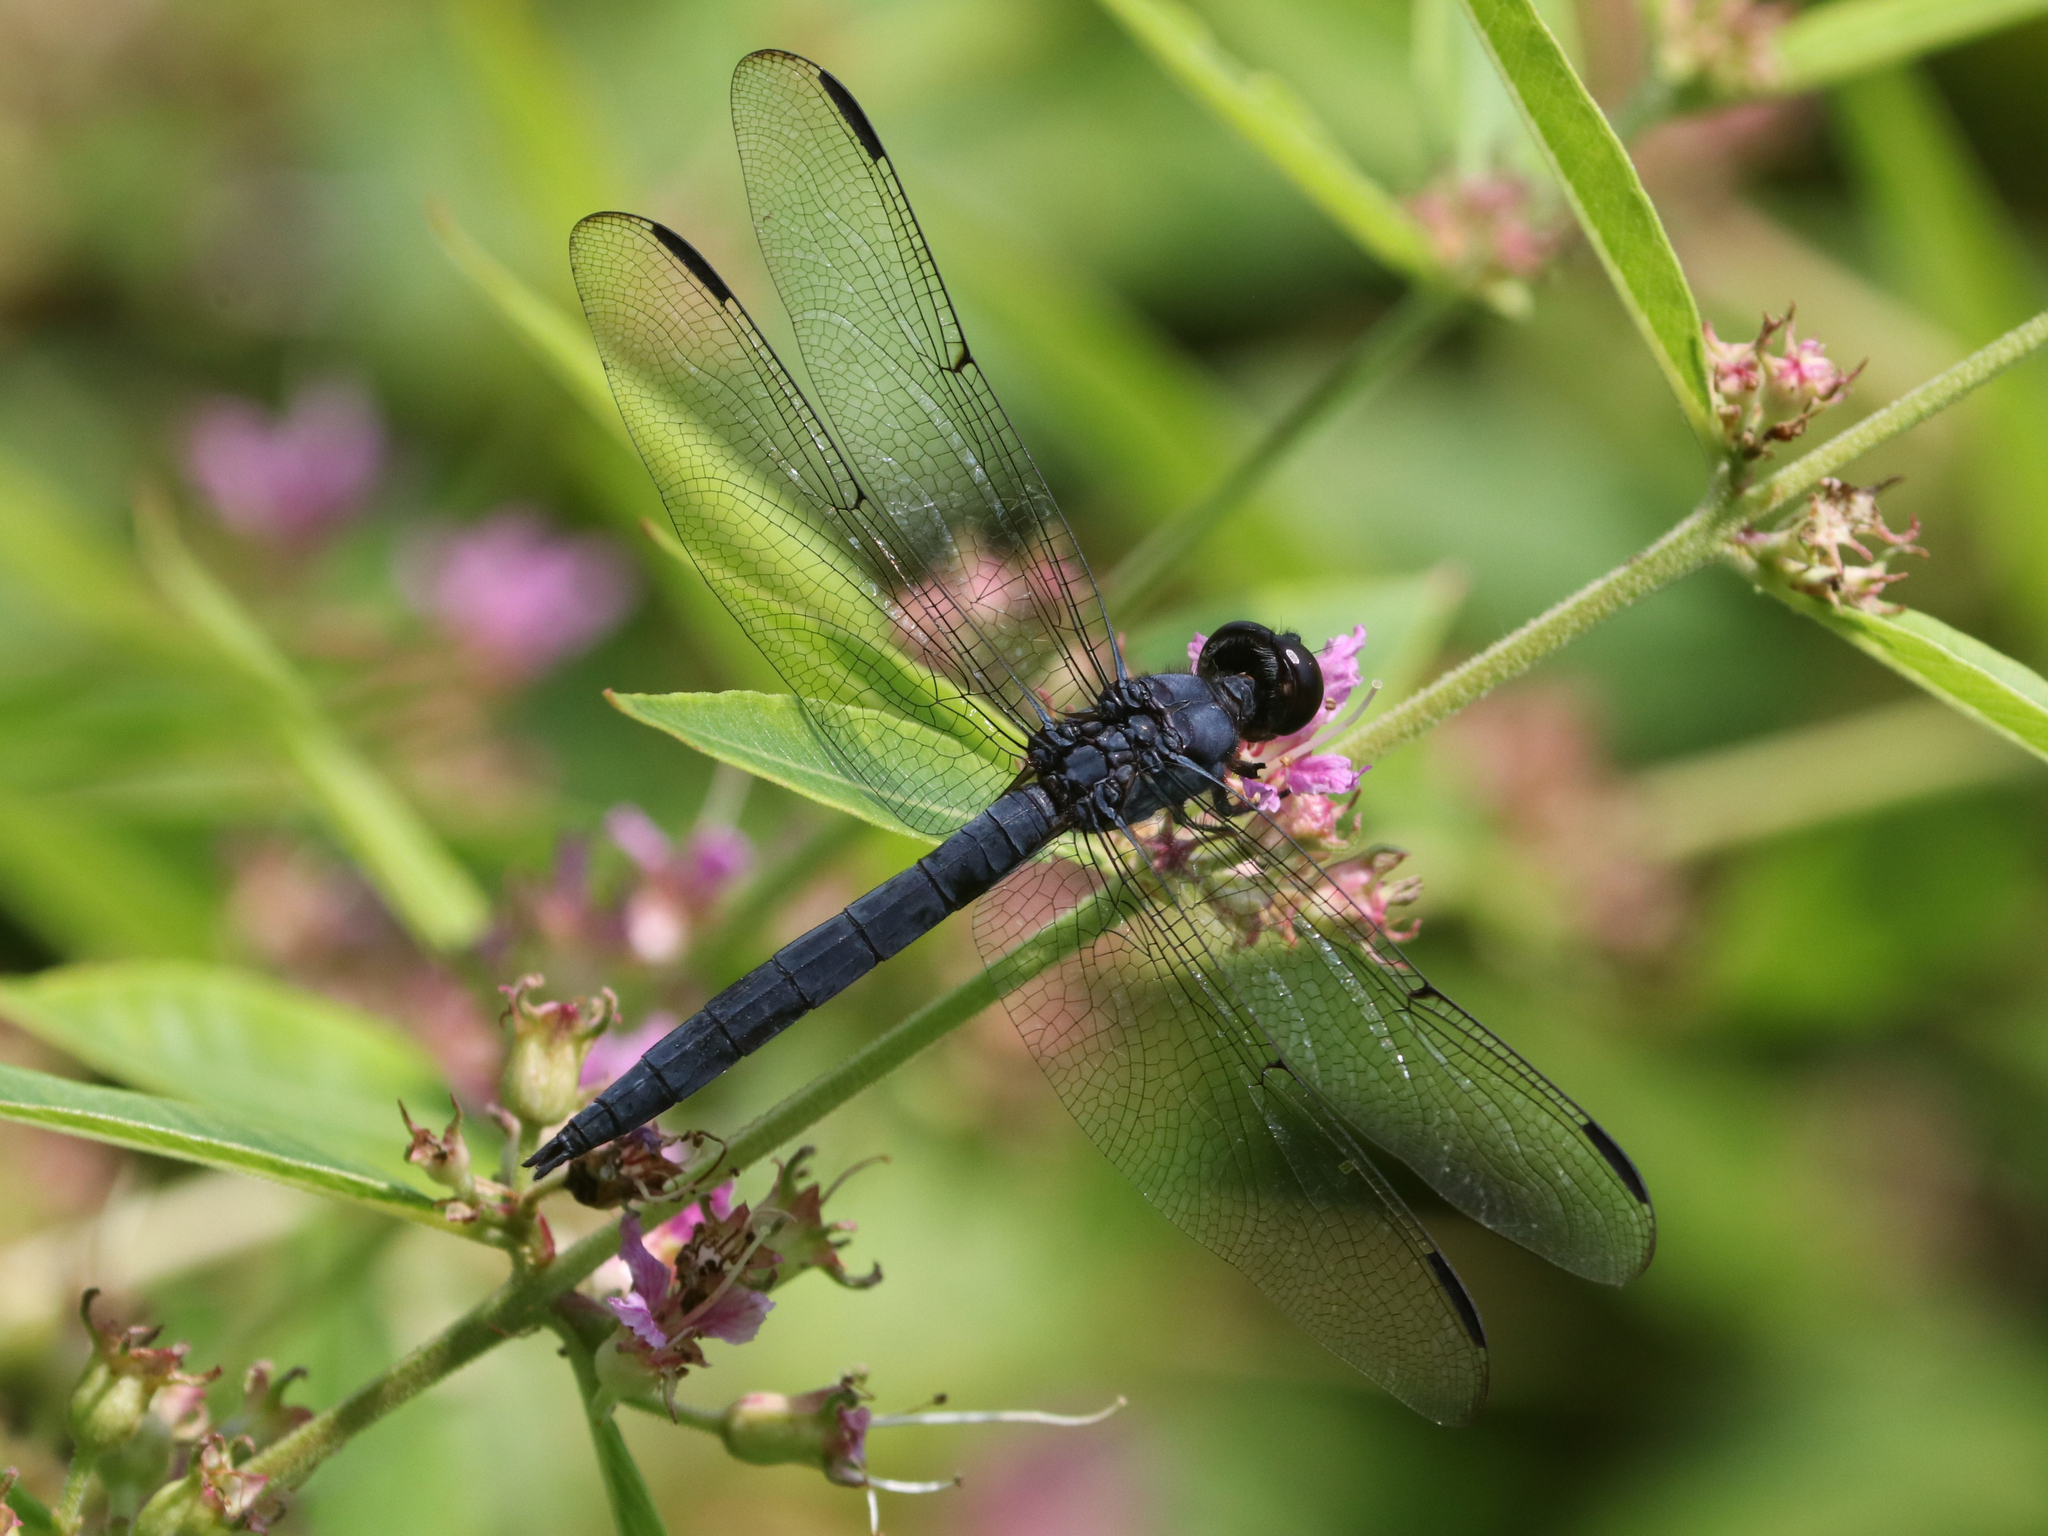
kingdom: Animalia
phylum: Arthropoda
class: Insecta
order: Odonata
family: Libellulidae
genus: Libellula
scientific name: Libellula incesta
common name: Slaty skimmer
